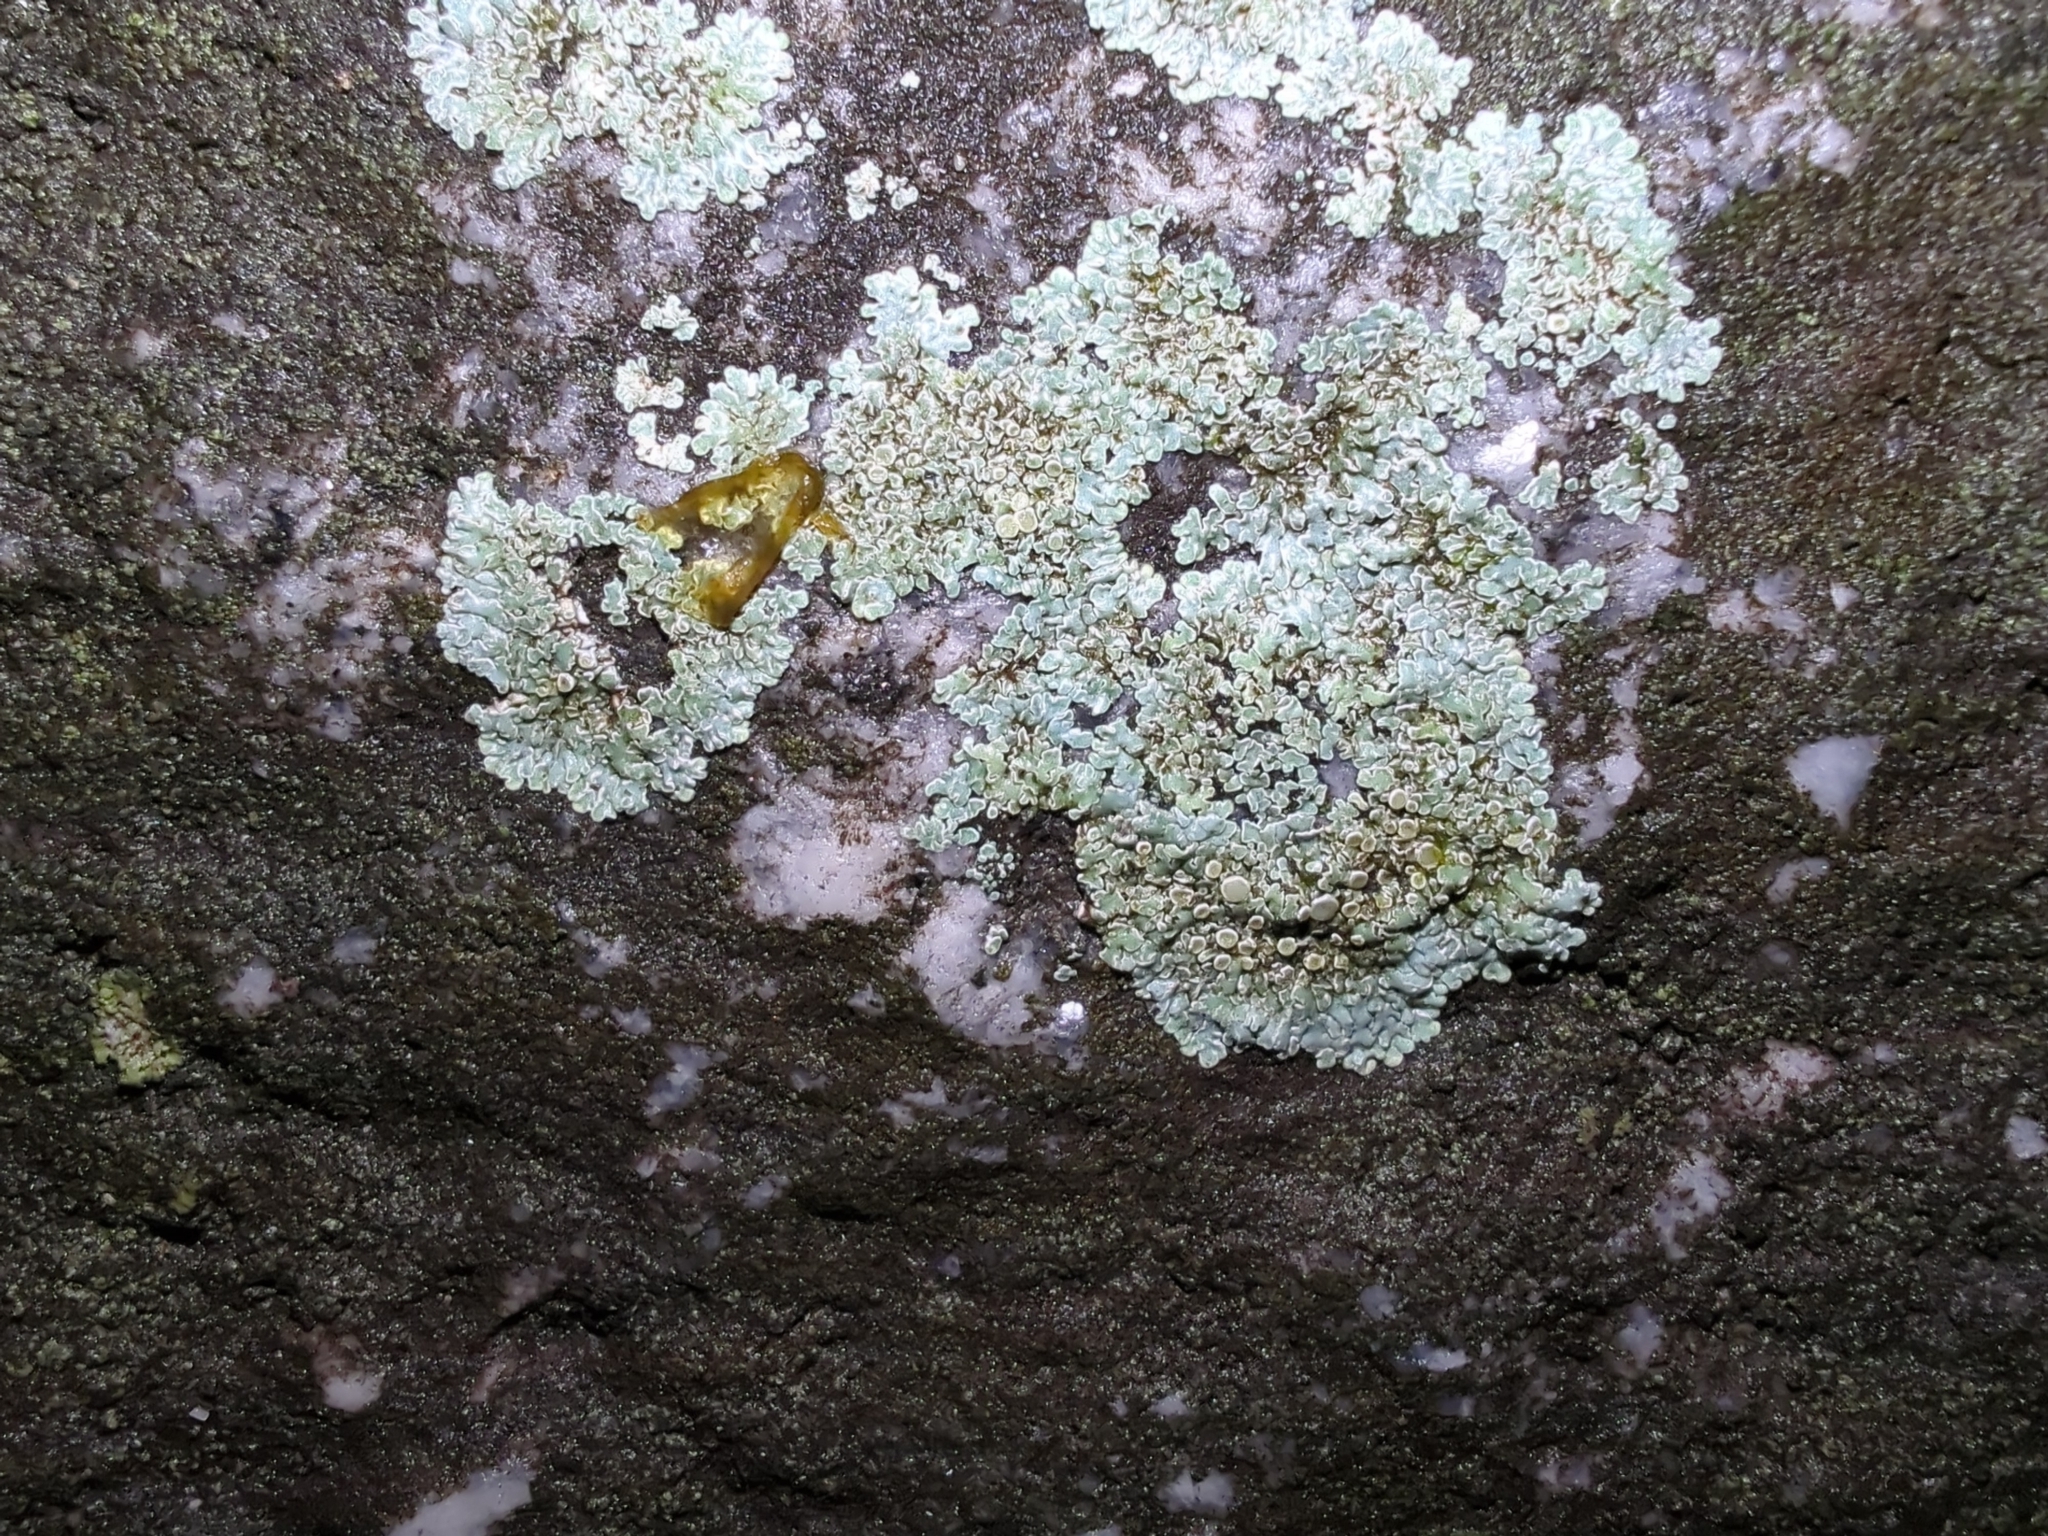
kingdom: Fungi
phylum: Ascomycota
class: Lecanoromycetes
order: Lecanorales
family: Lecanoraceae
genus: Protoparmeliopsis
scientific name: Protoparmeliopsis muralis
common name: Stonewall rim lichen
